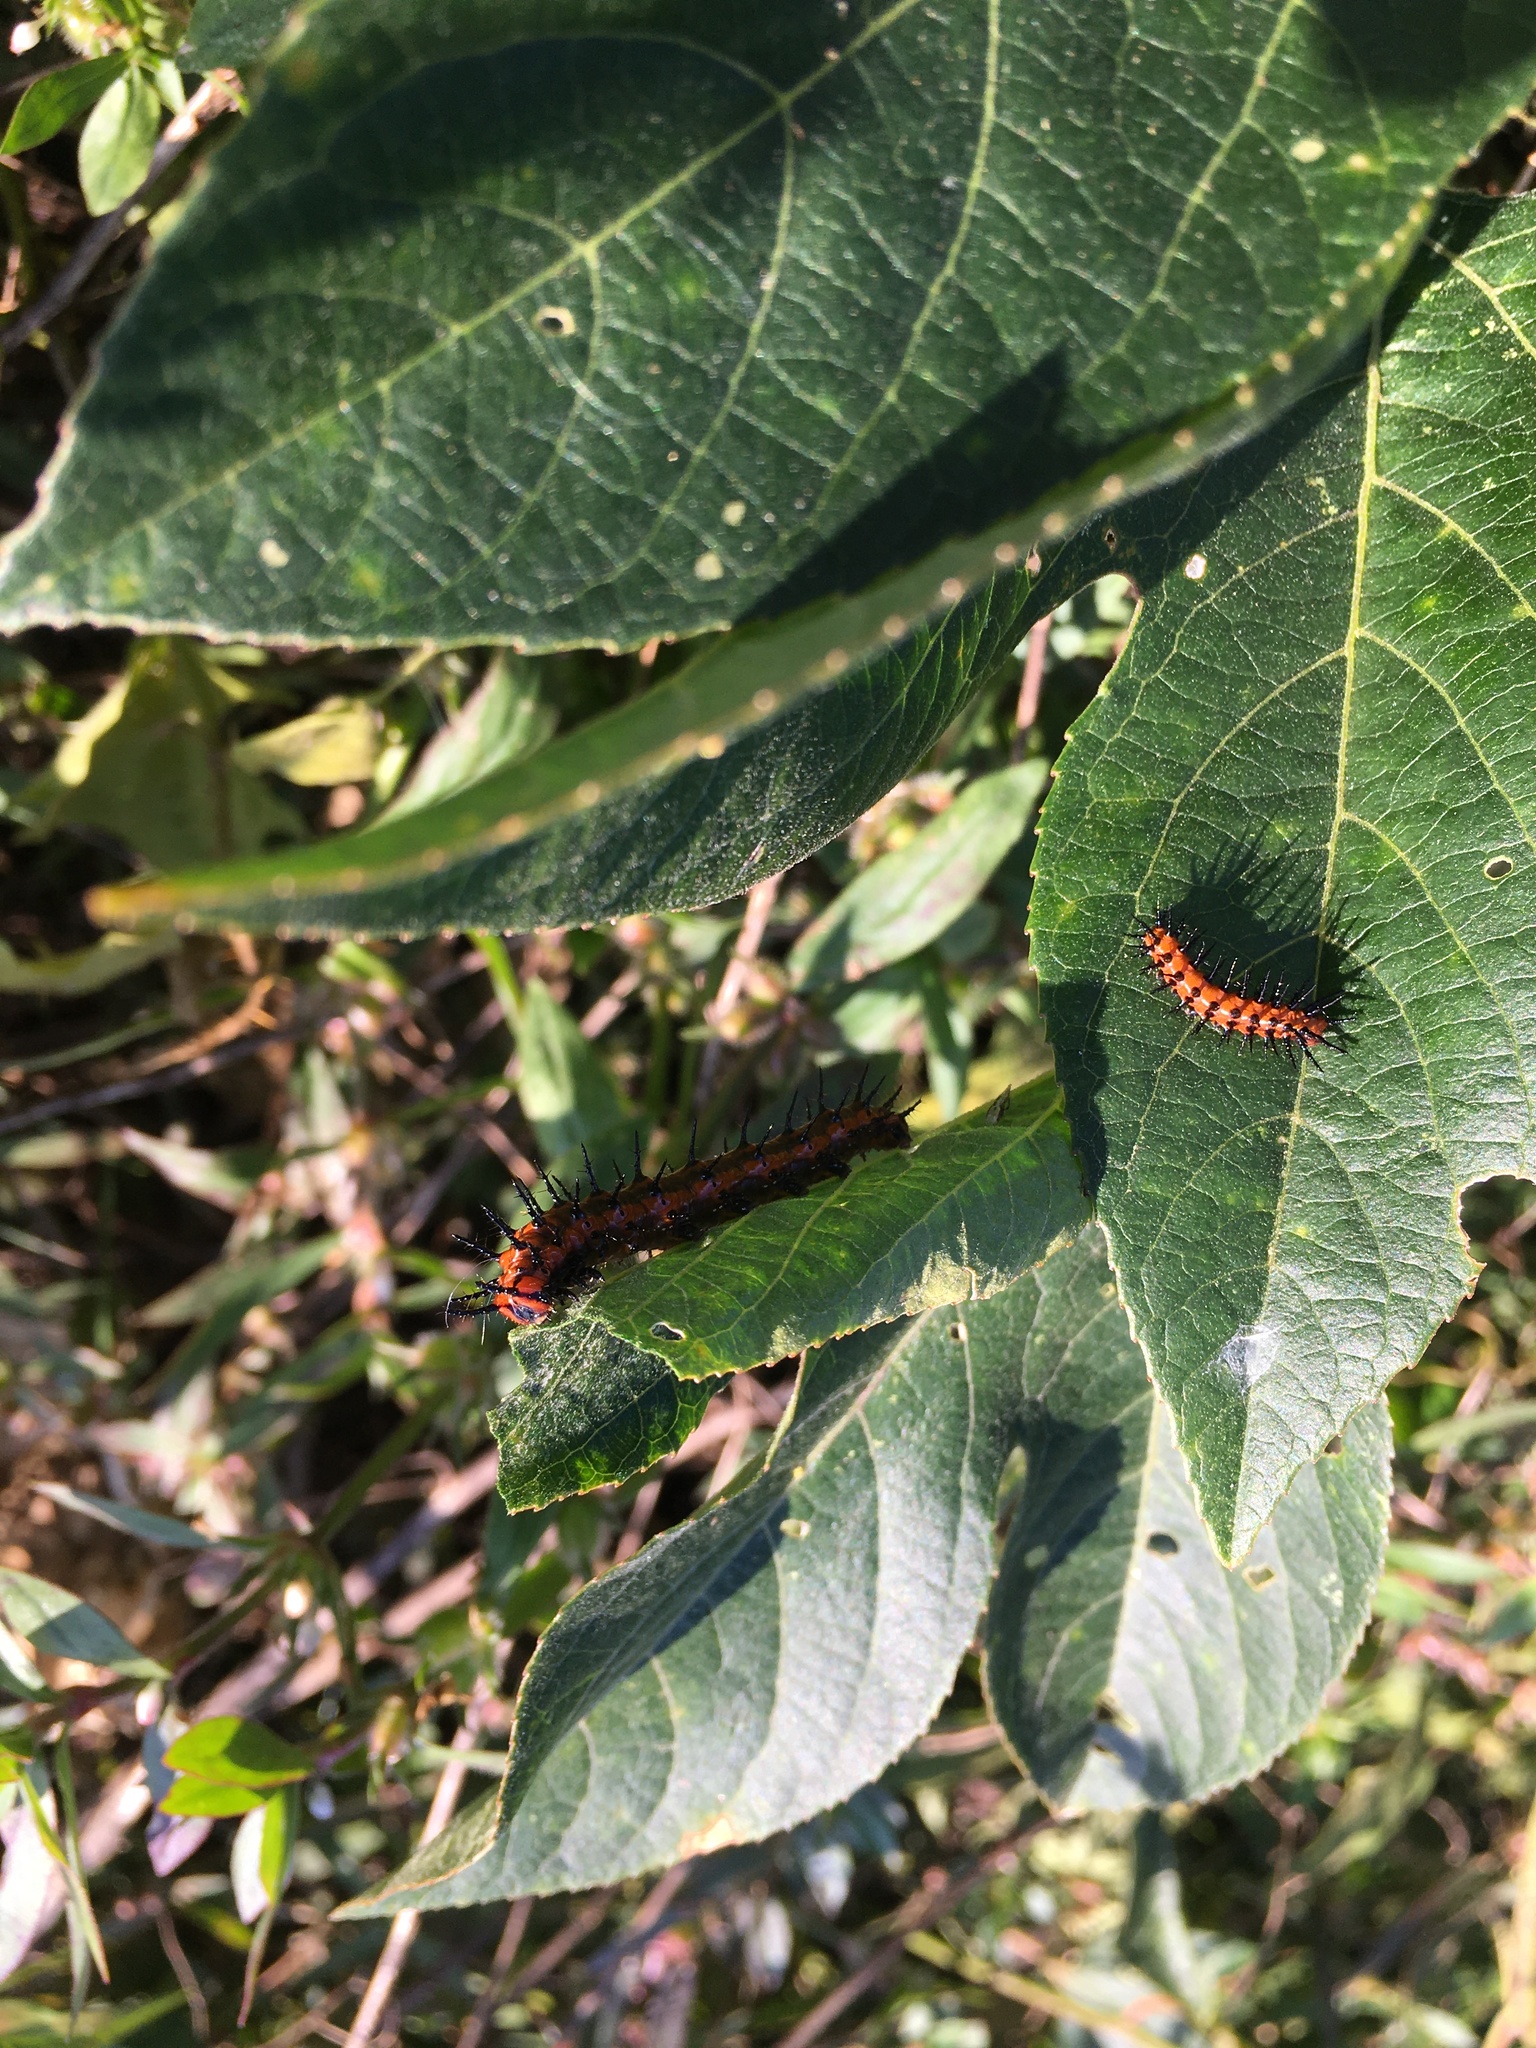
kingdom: Animalia
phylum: Arthropoda
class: Insecta
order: Lepidoptera
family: Nymphalidae
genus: Dione
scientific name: Dione vanillae
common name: Gulf fritillary
